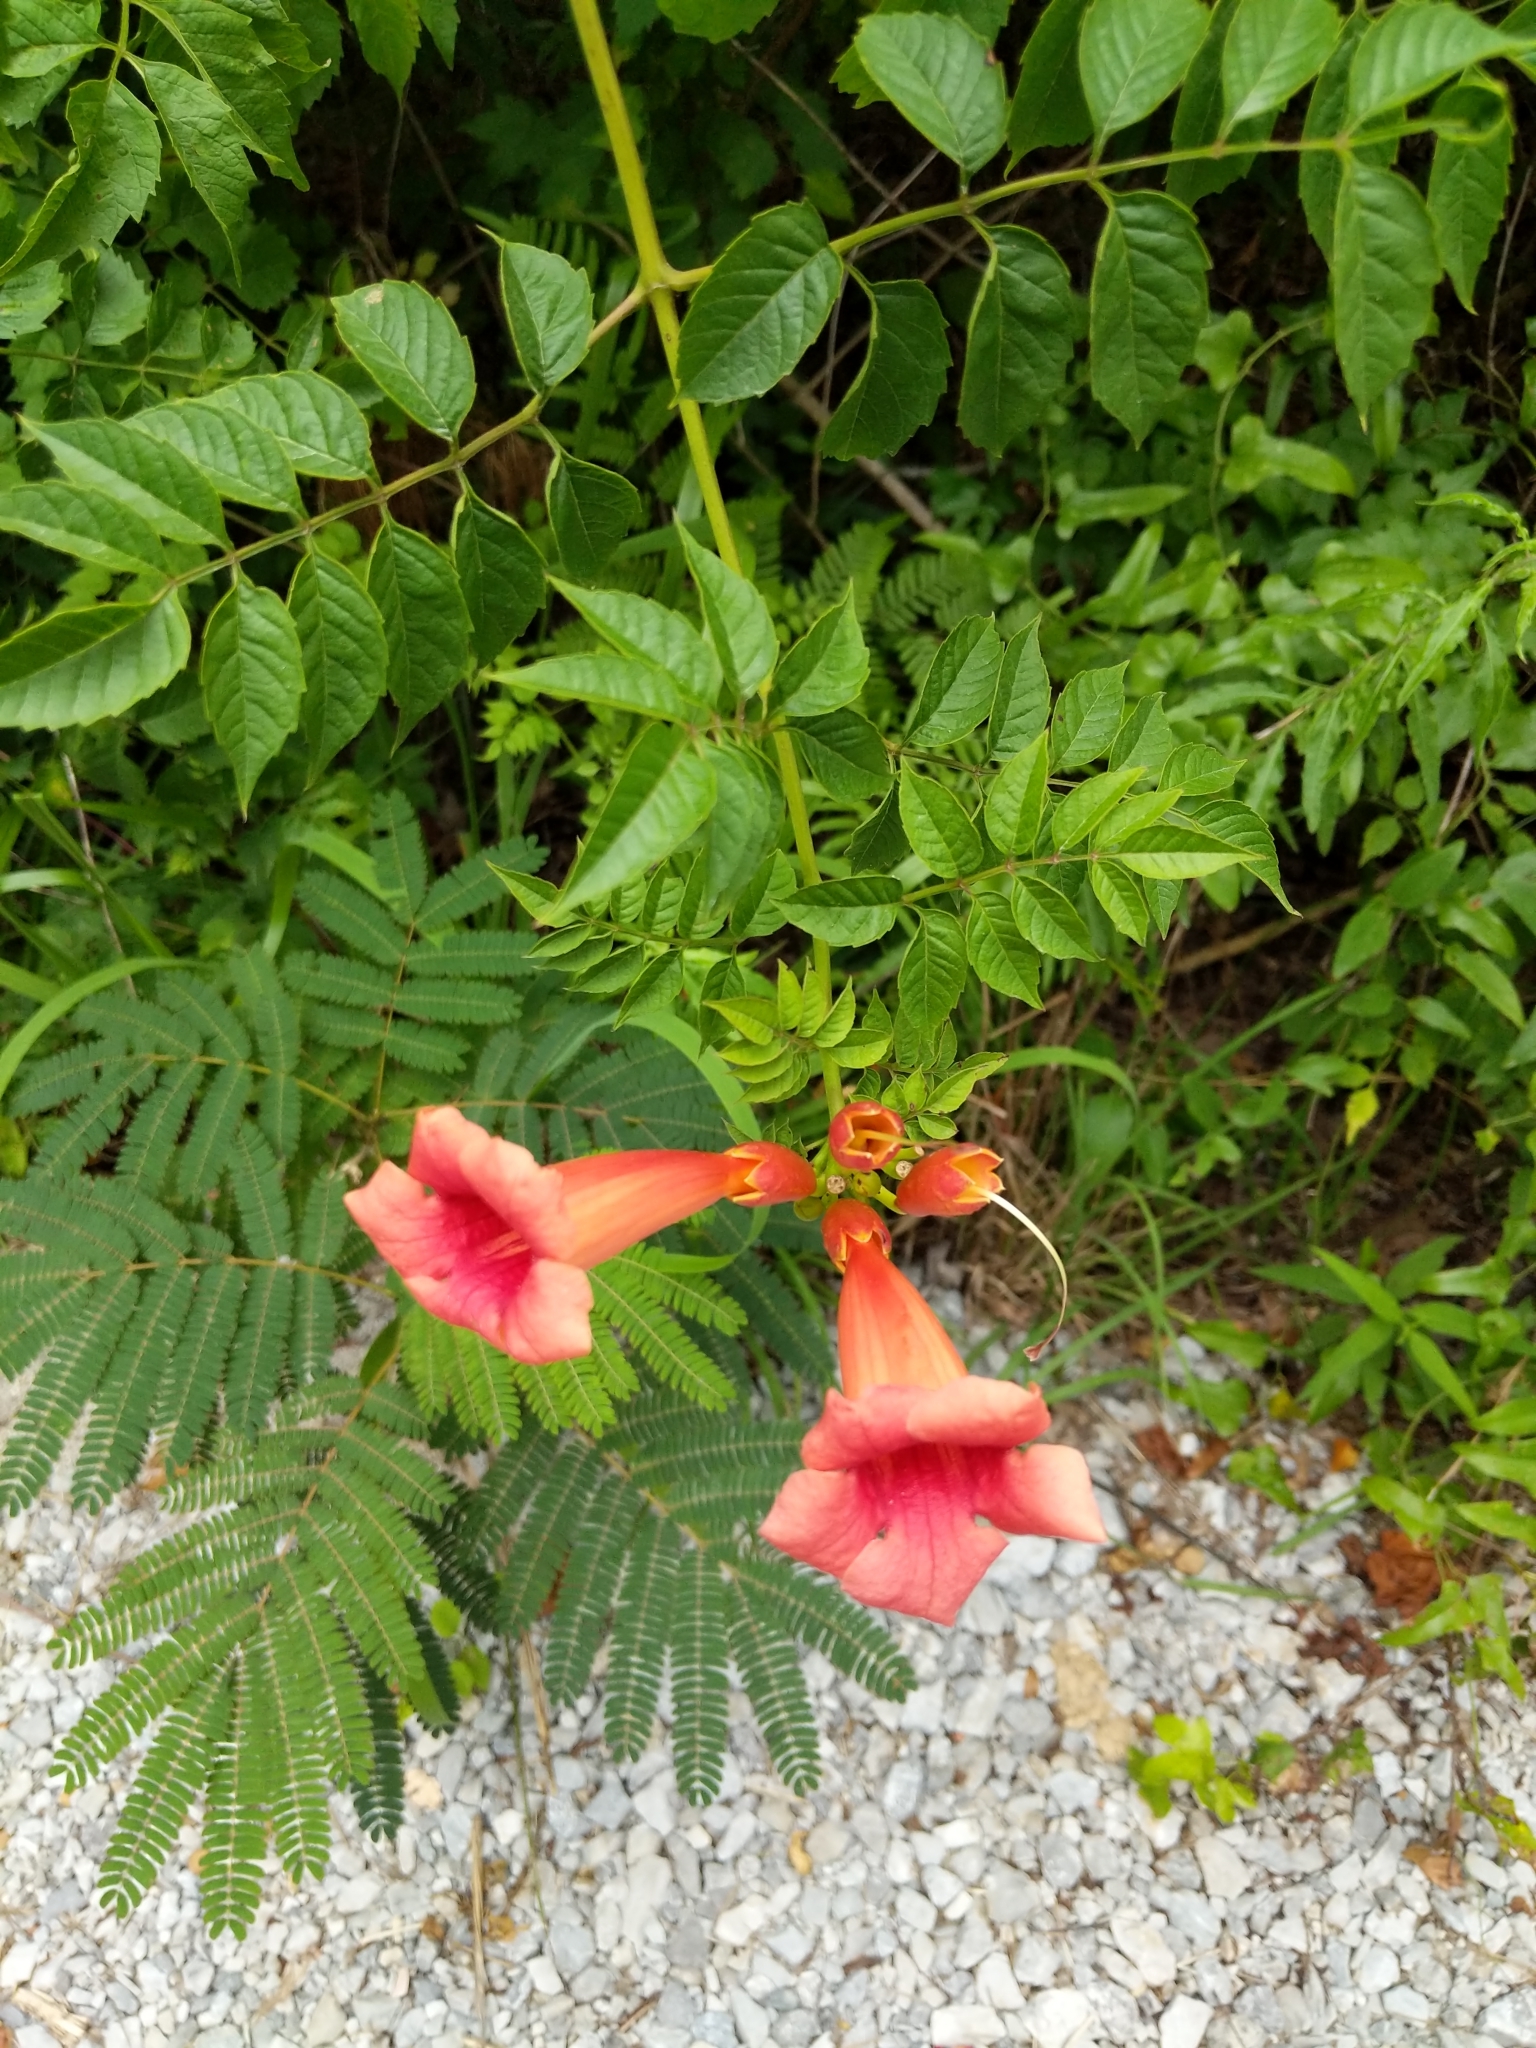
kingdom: Plantae
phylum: Tracheophyta
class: Magnoliopsida
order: Lamiales
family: Bignoniaceae
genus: Campsis
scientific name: Campsis radicans
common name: Trumpet-creeper
